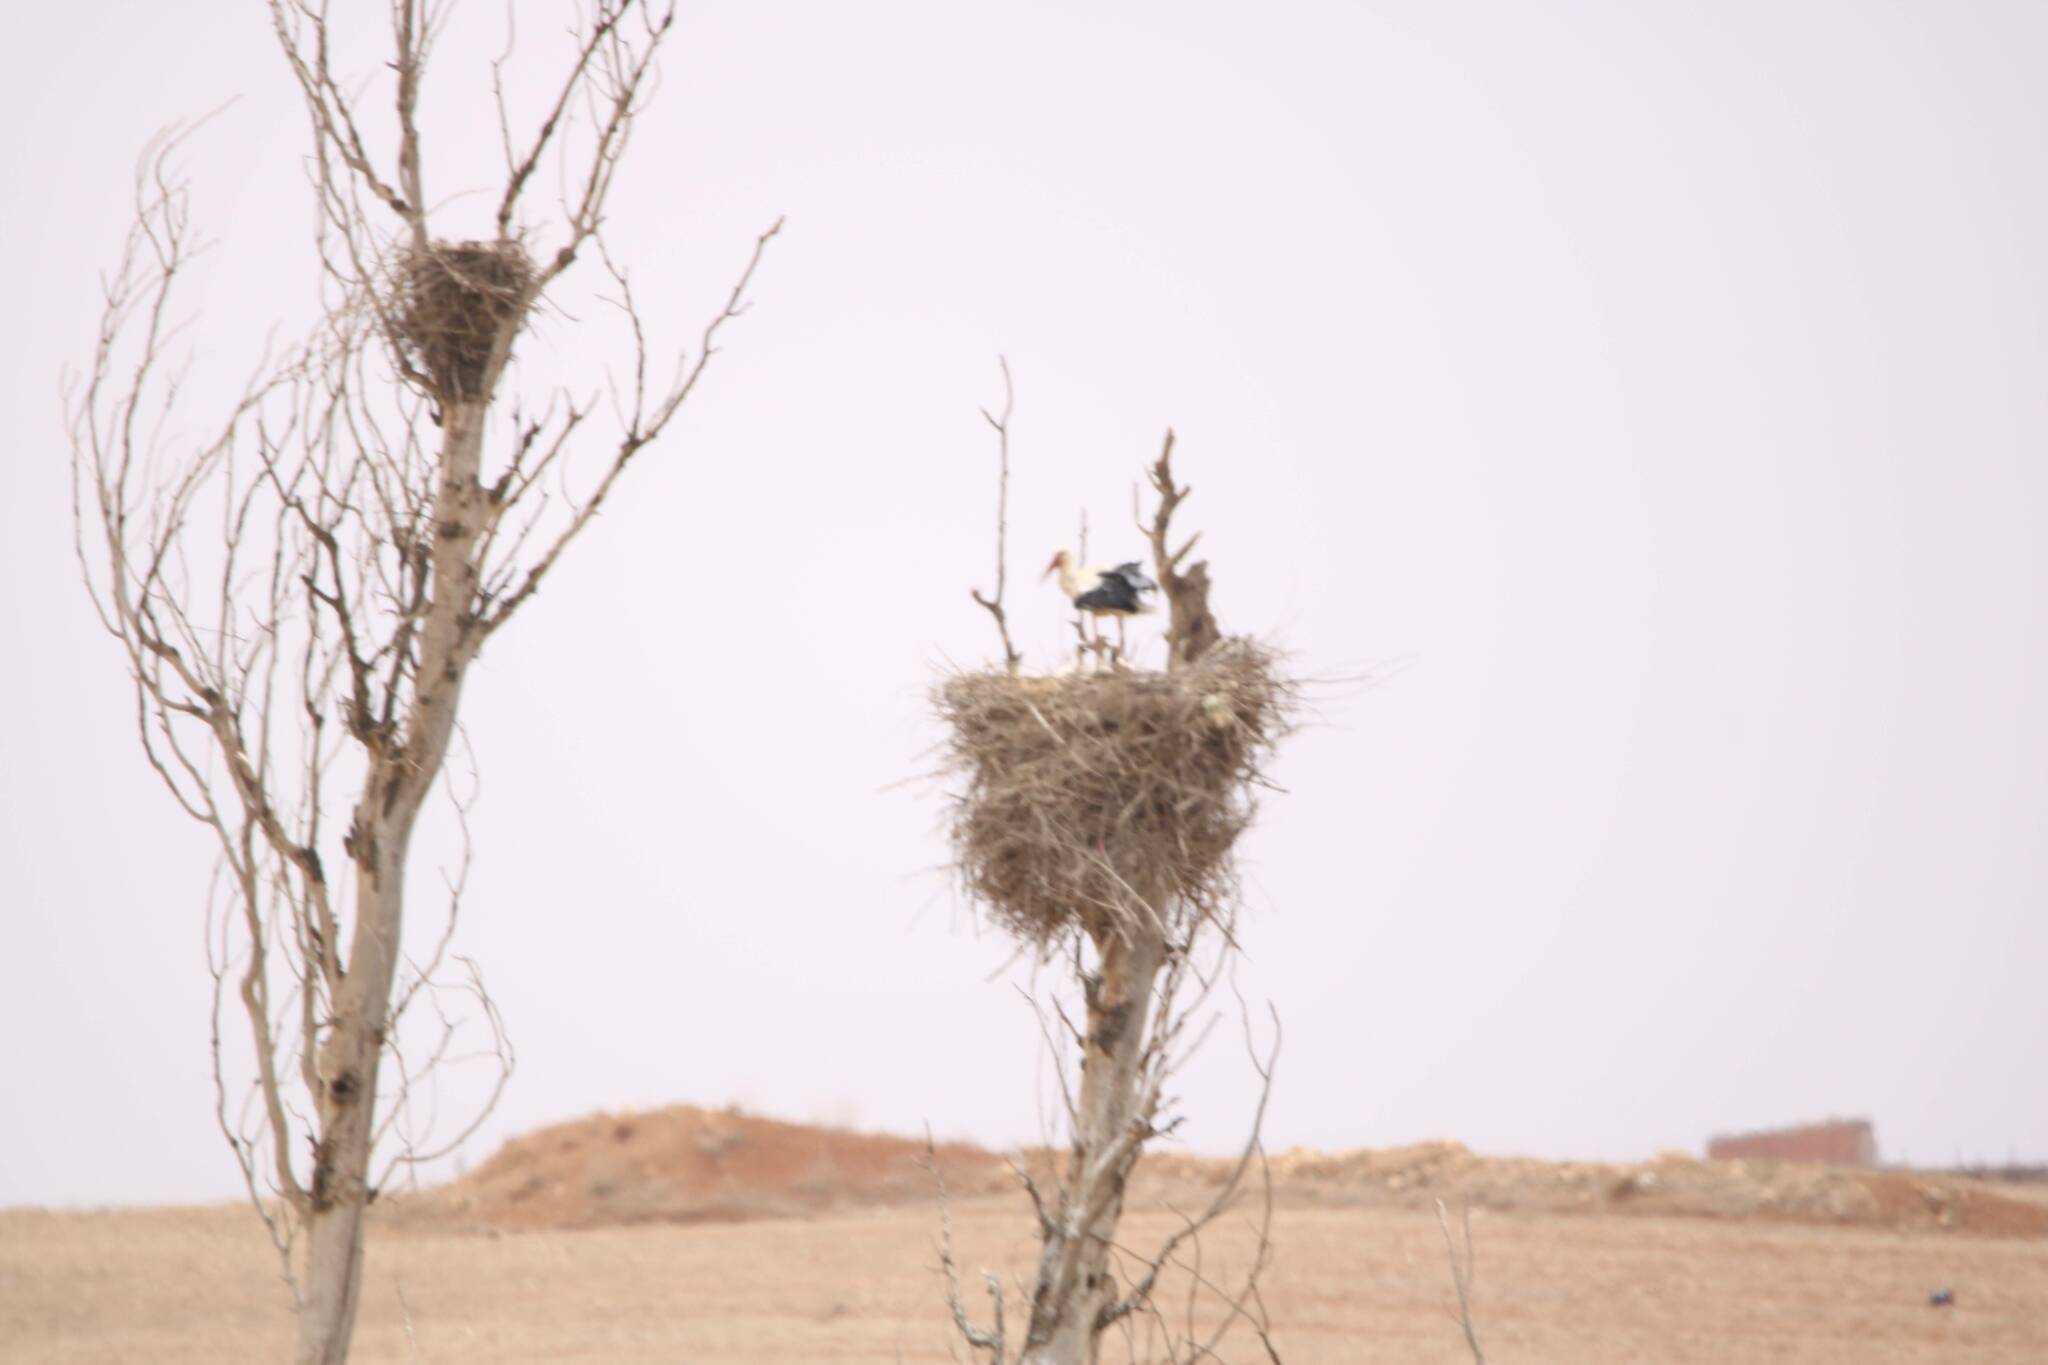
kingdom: Animalia
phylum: Chordata
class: Aves
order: Ciconiiformes
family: Ciconiidae
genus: Ciconia
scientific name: Ciconia ciconia
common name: White stork
